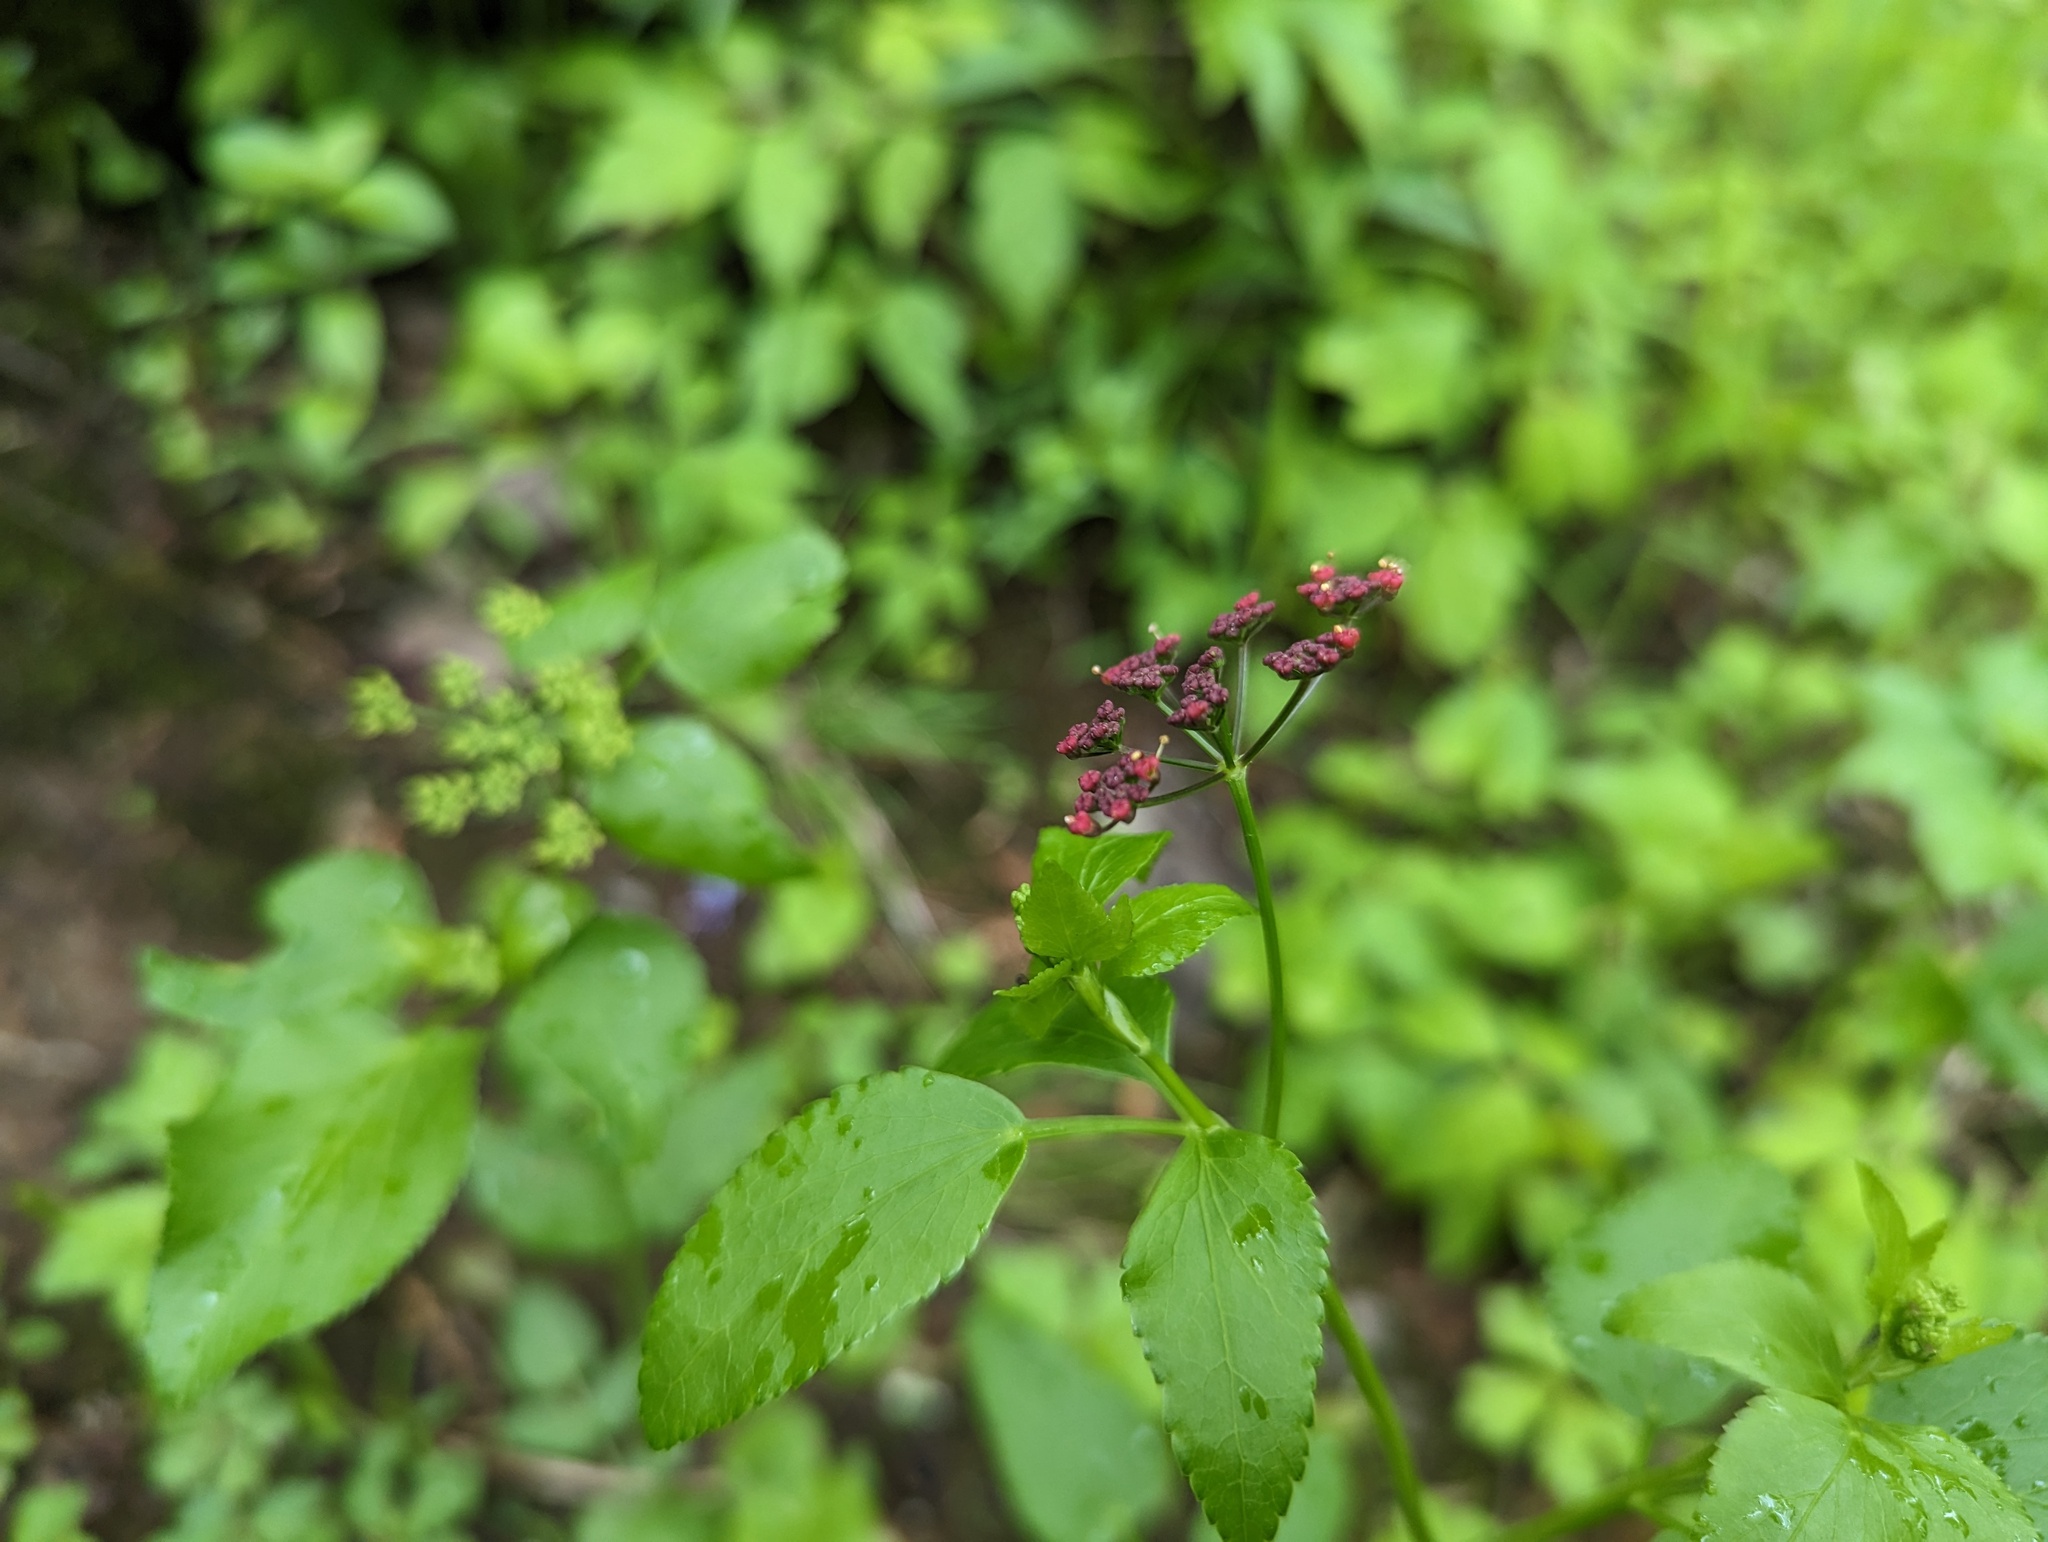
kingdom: Plantae
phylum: Tracheophyta
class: Magnoliopsida
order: Apiales
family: Apiaceae
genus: Thaspium
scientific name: Thaspium trifoliatum
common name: Purple meadow-parsnip
